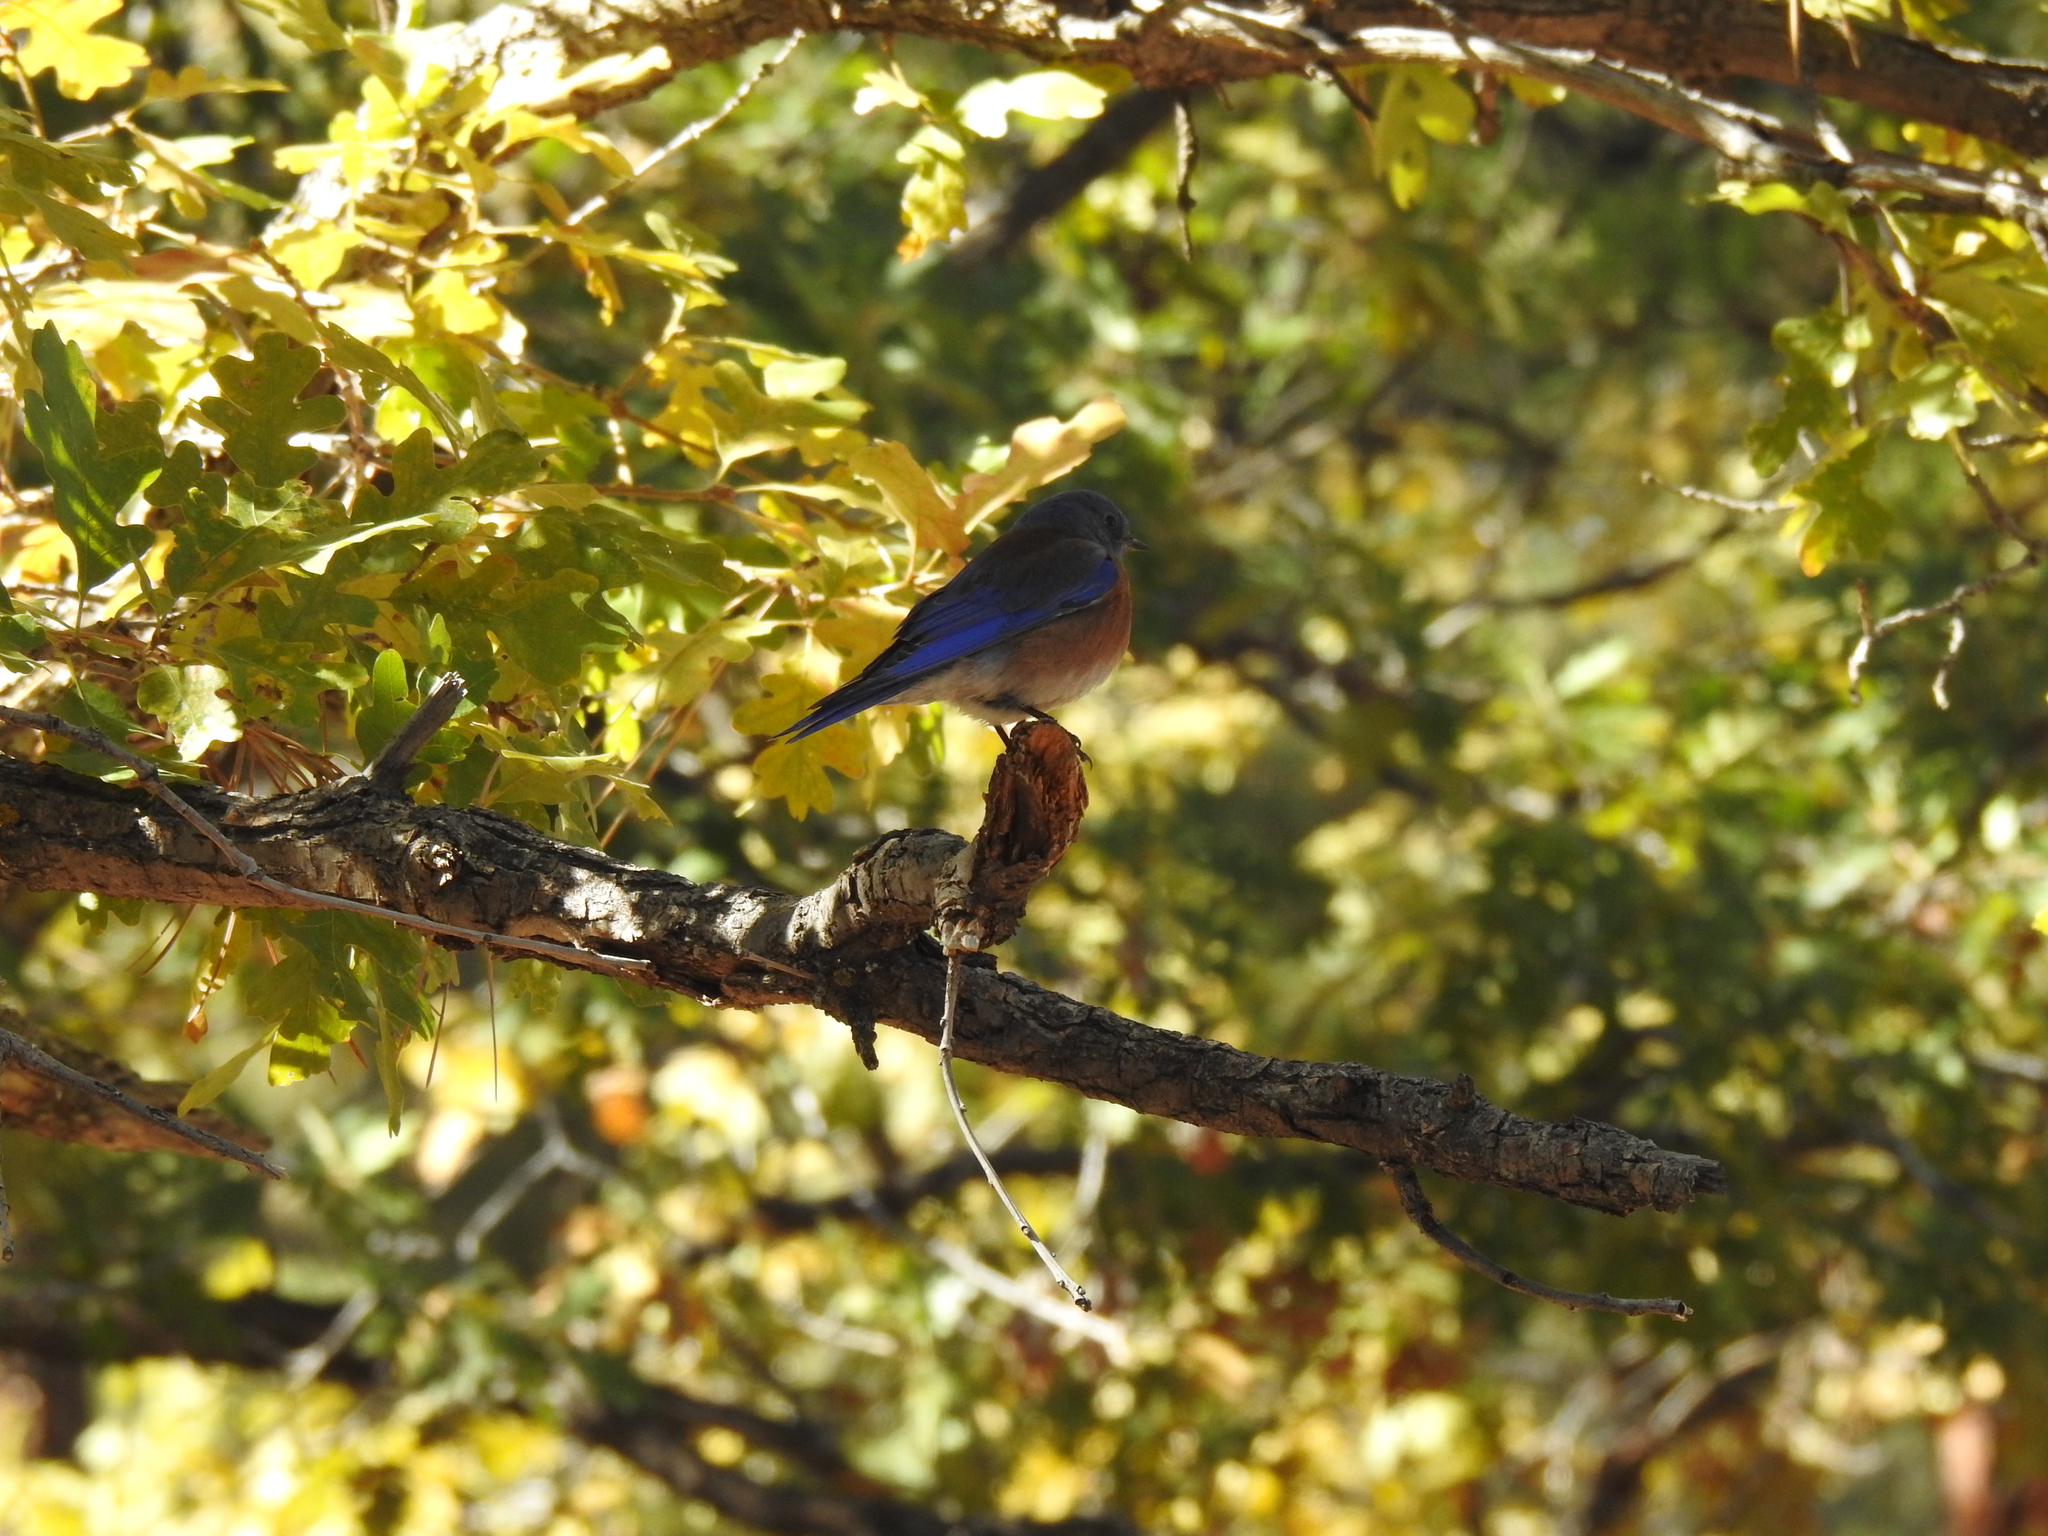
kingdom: Animalia
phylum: Chordata
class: Aves
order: Passeriformes
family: Turdidae
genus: Sialia
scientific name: Sialia mexicana
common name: Western bluebird
